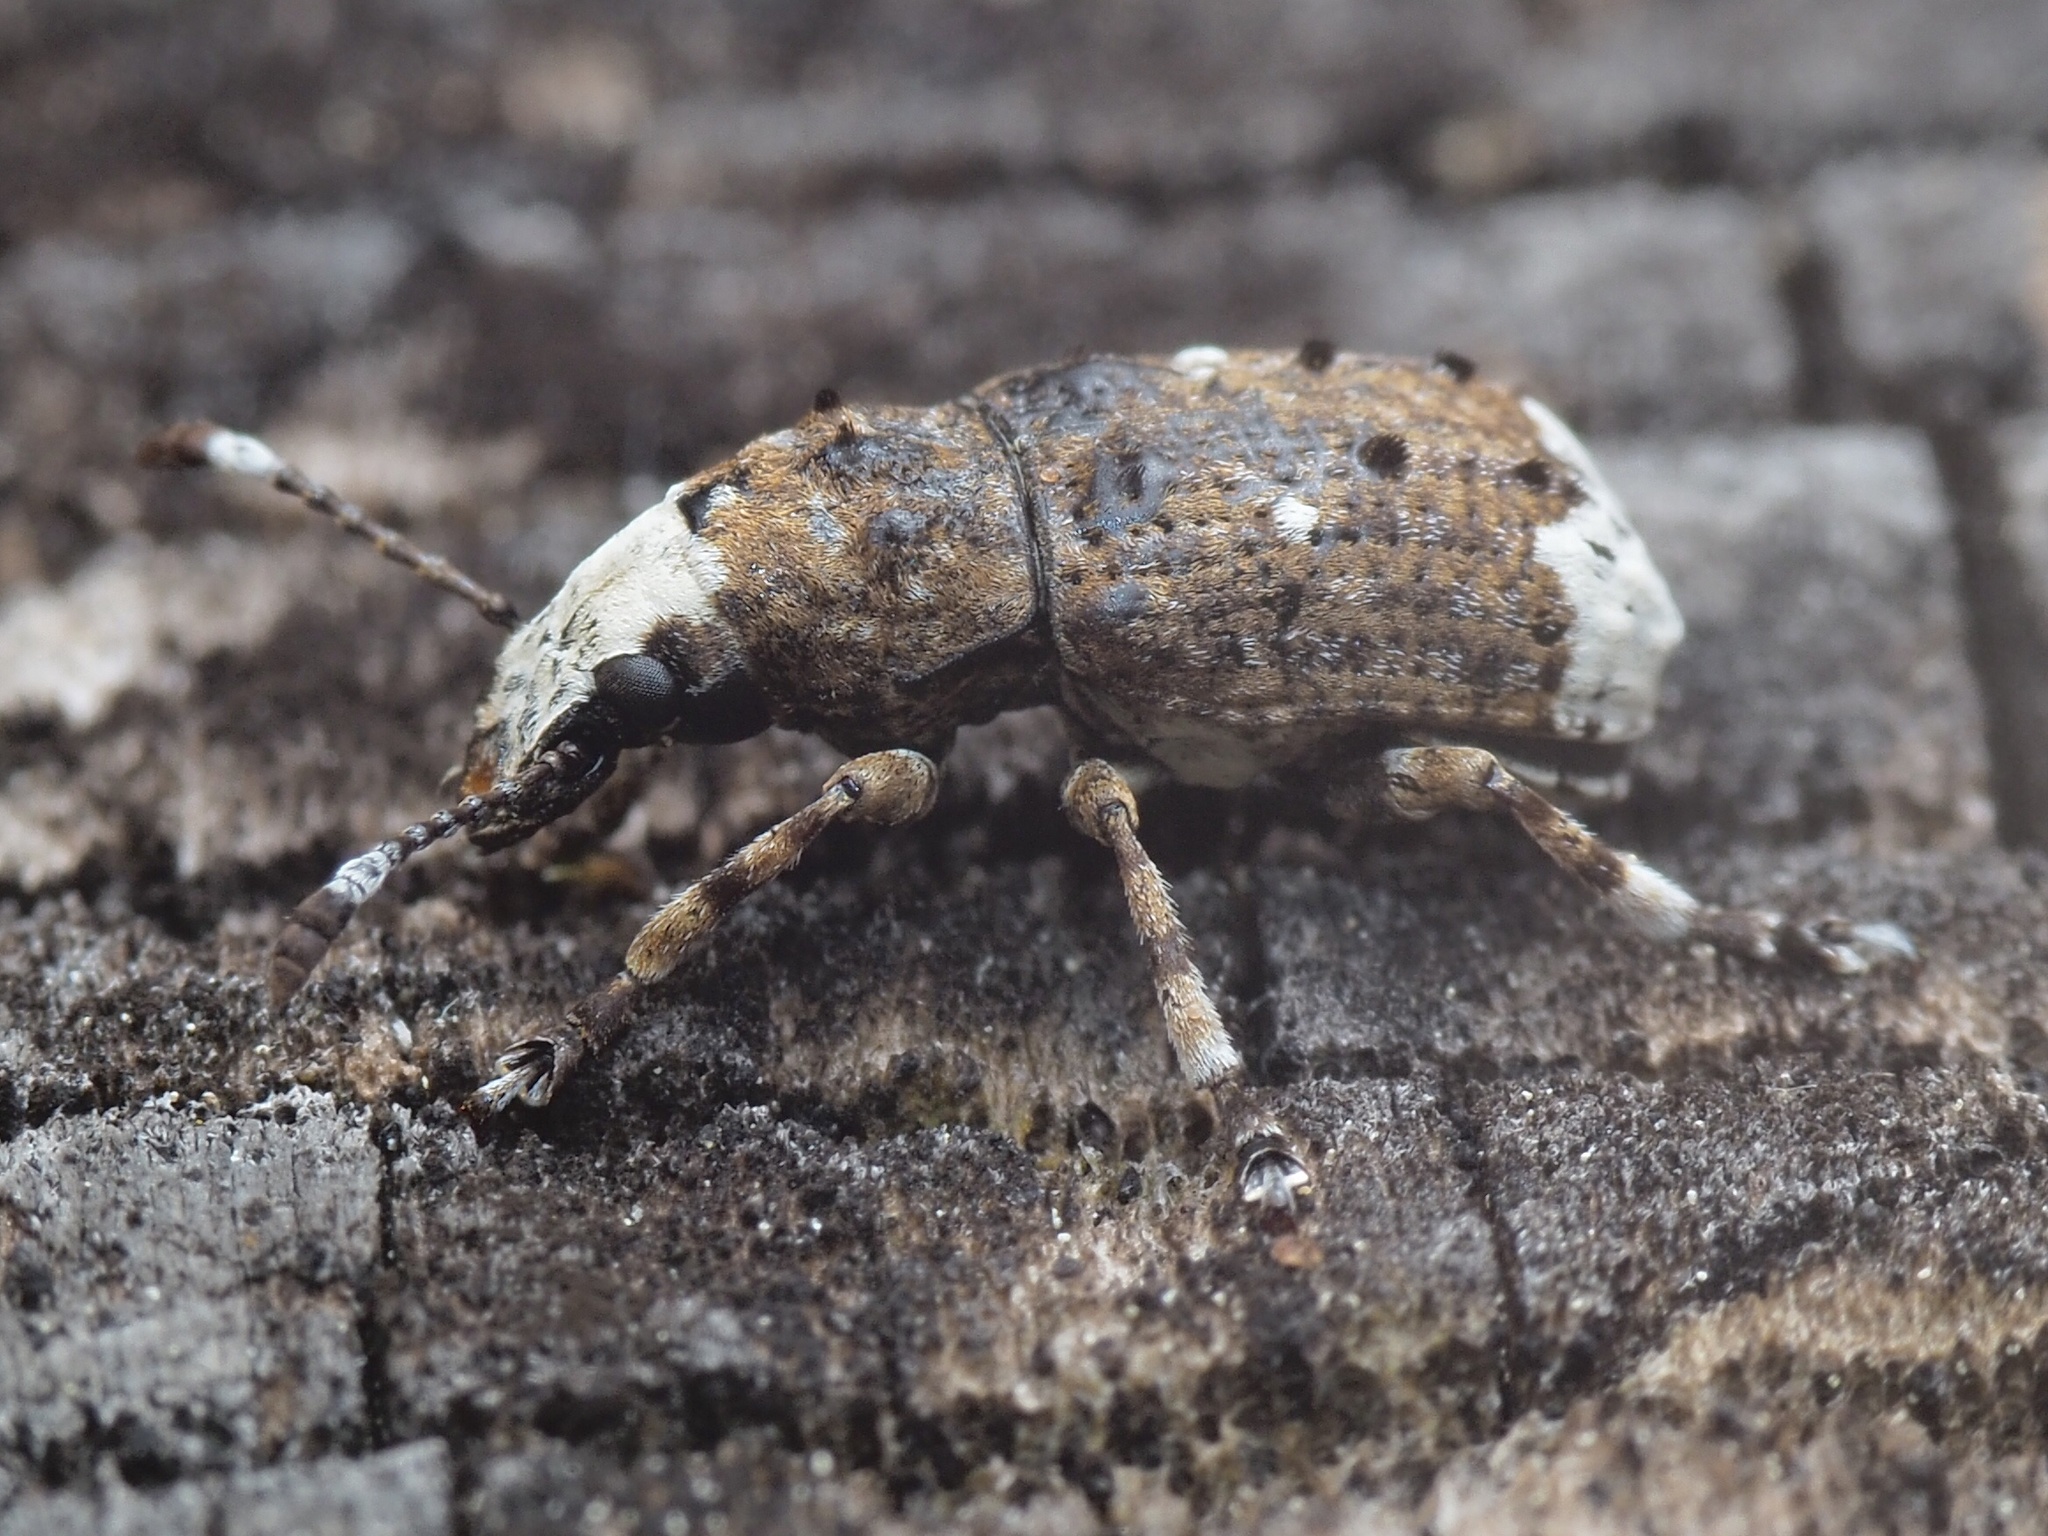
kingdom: Animalia
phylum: Arthropoda
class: Insecta
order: Coleoptera
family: Anthribidae
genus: Platystomos
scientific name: Platystomos albinus
